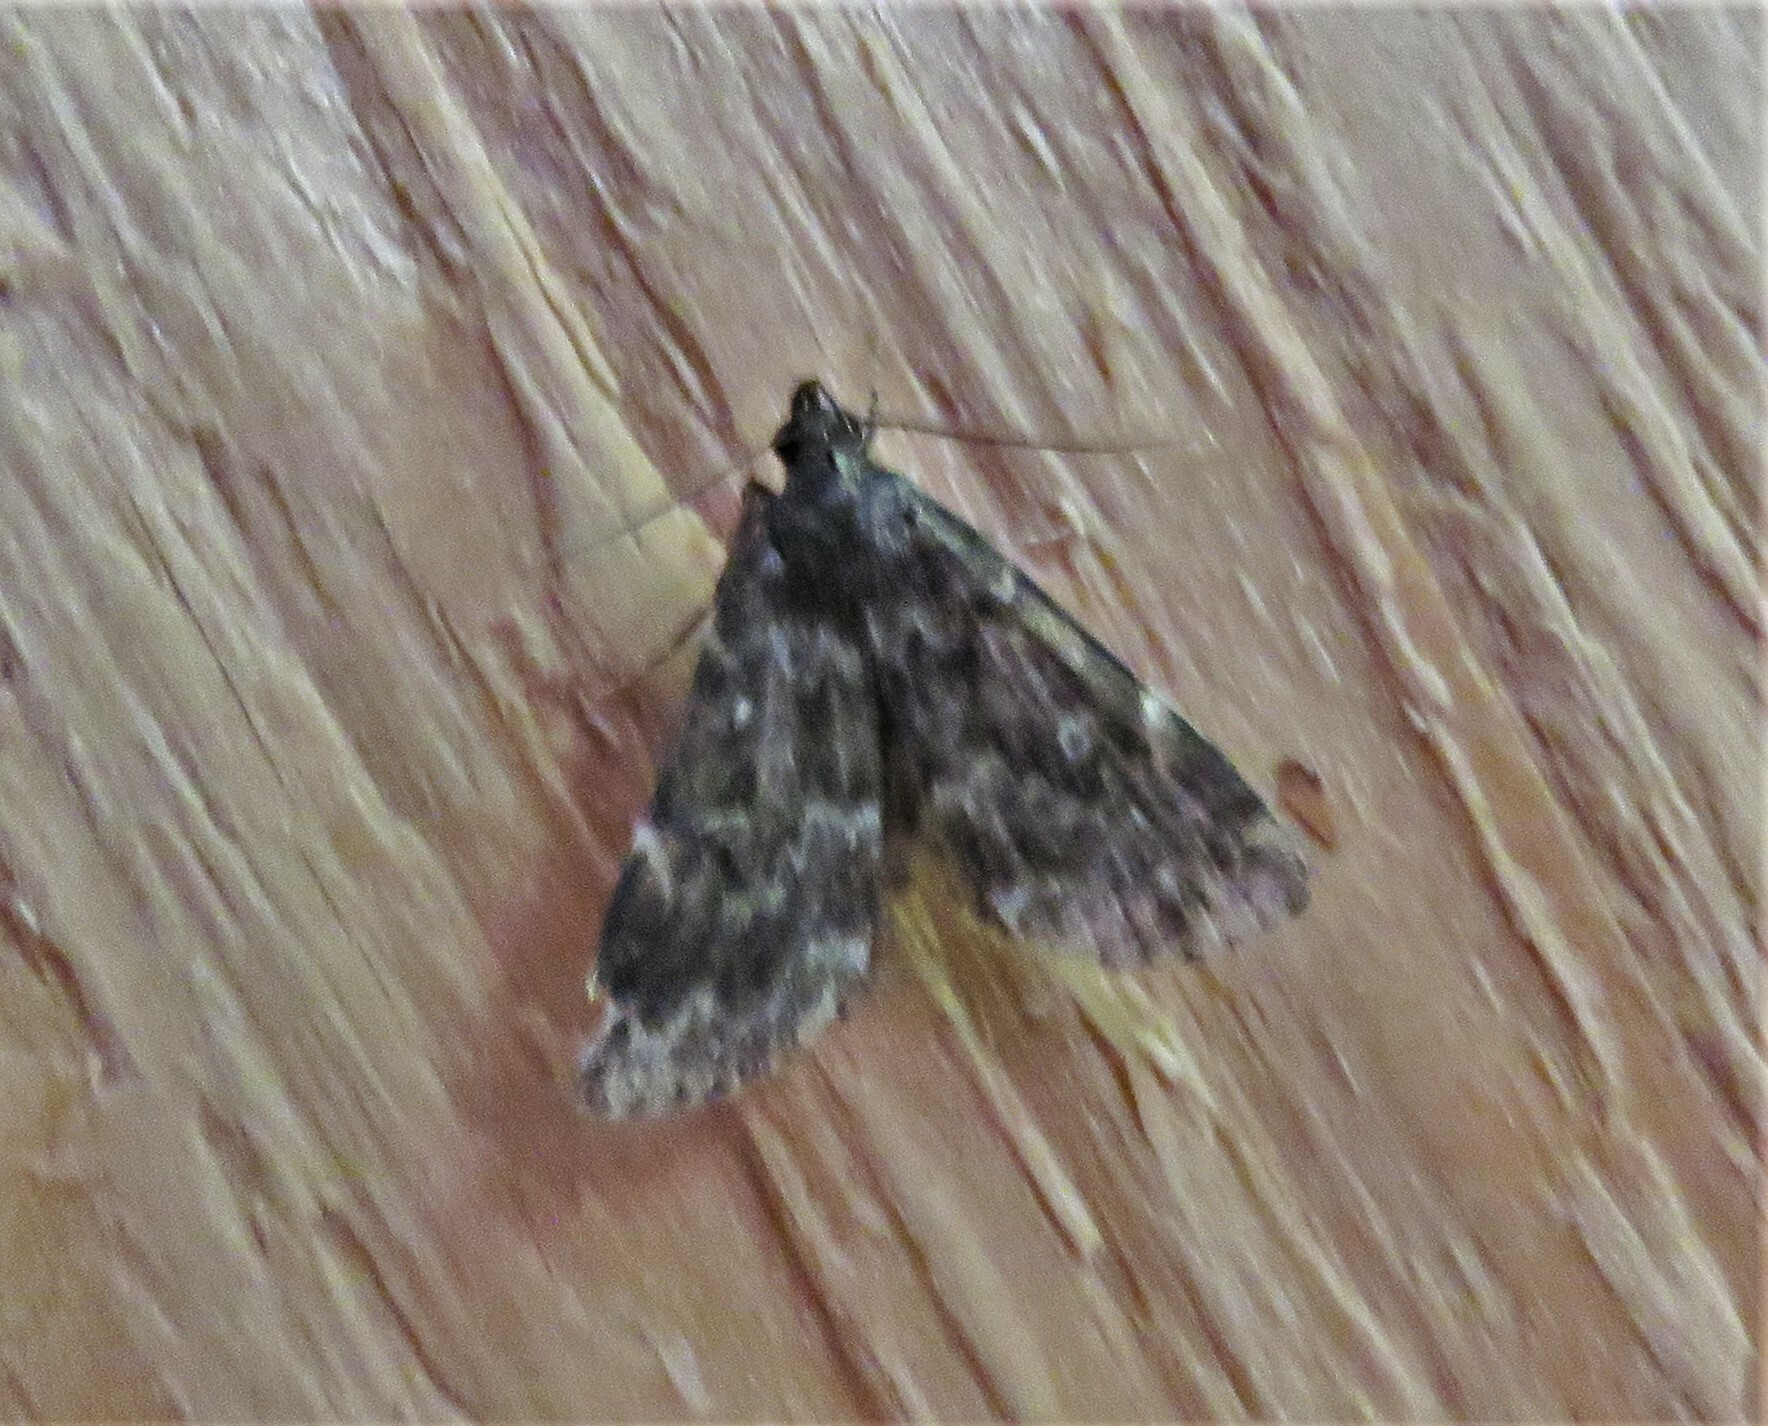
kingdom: Animalia
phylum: Arthropoda
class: Insecta
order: Lepidoptera
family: Erebidae
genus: Idia
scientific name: Idia lubricalis
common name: Twin-striped tabby
